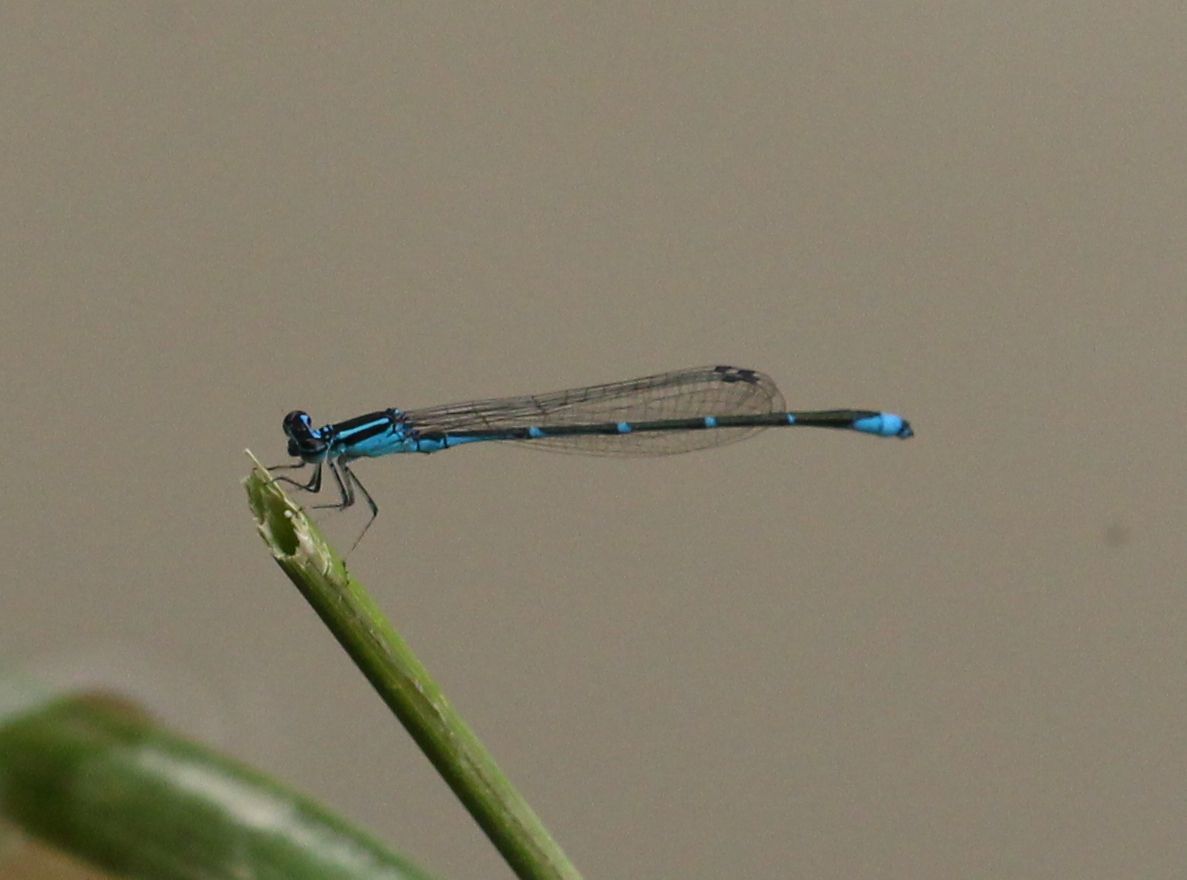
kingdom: Animalia
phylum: Arthropoda
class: Insecta
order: Odonata
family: Coenagrionidae
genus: Enallagma
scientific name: Enallagma exsulans
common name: Stream bluet
